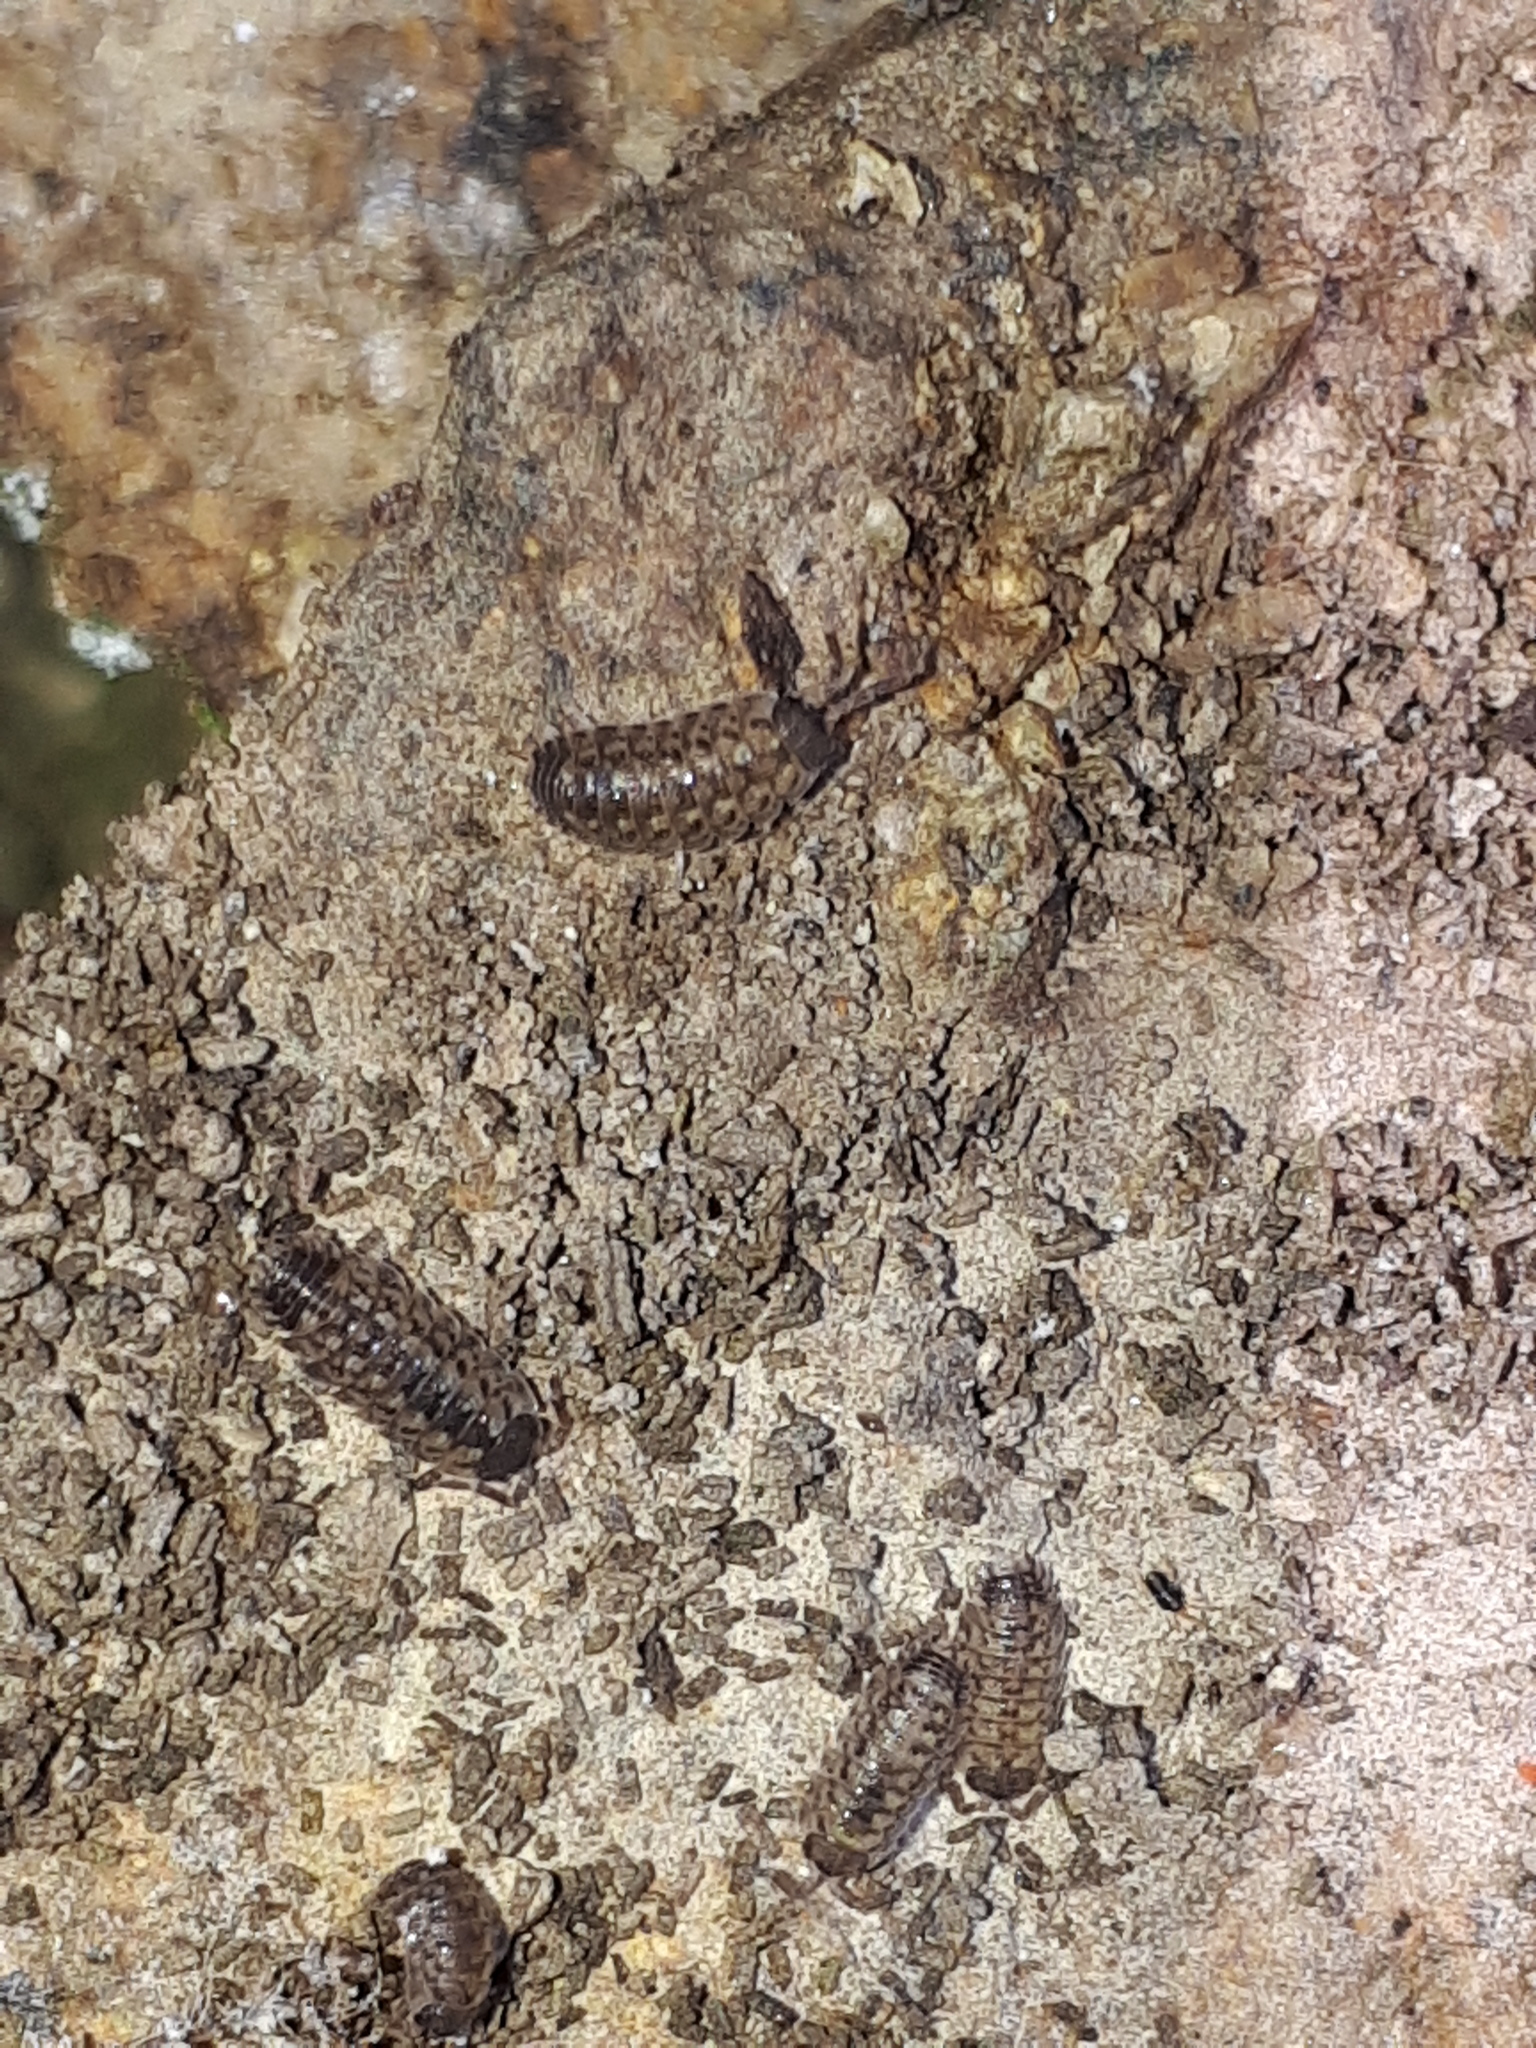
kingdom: Animalia
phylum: Arthropoda
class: Malacostraca
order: Isopoda
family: Porcellionidae
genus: Porcellio
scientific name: Porcellio spinicornis
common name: Painted woodlouse
